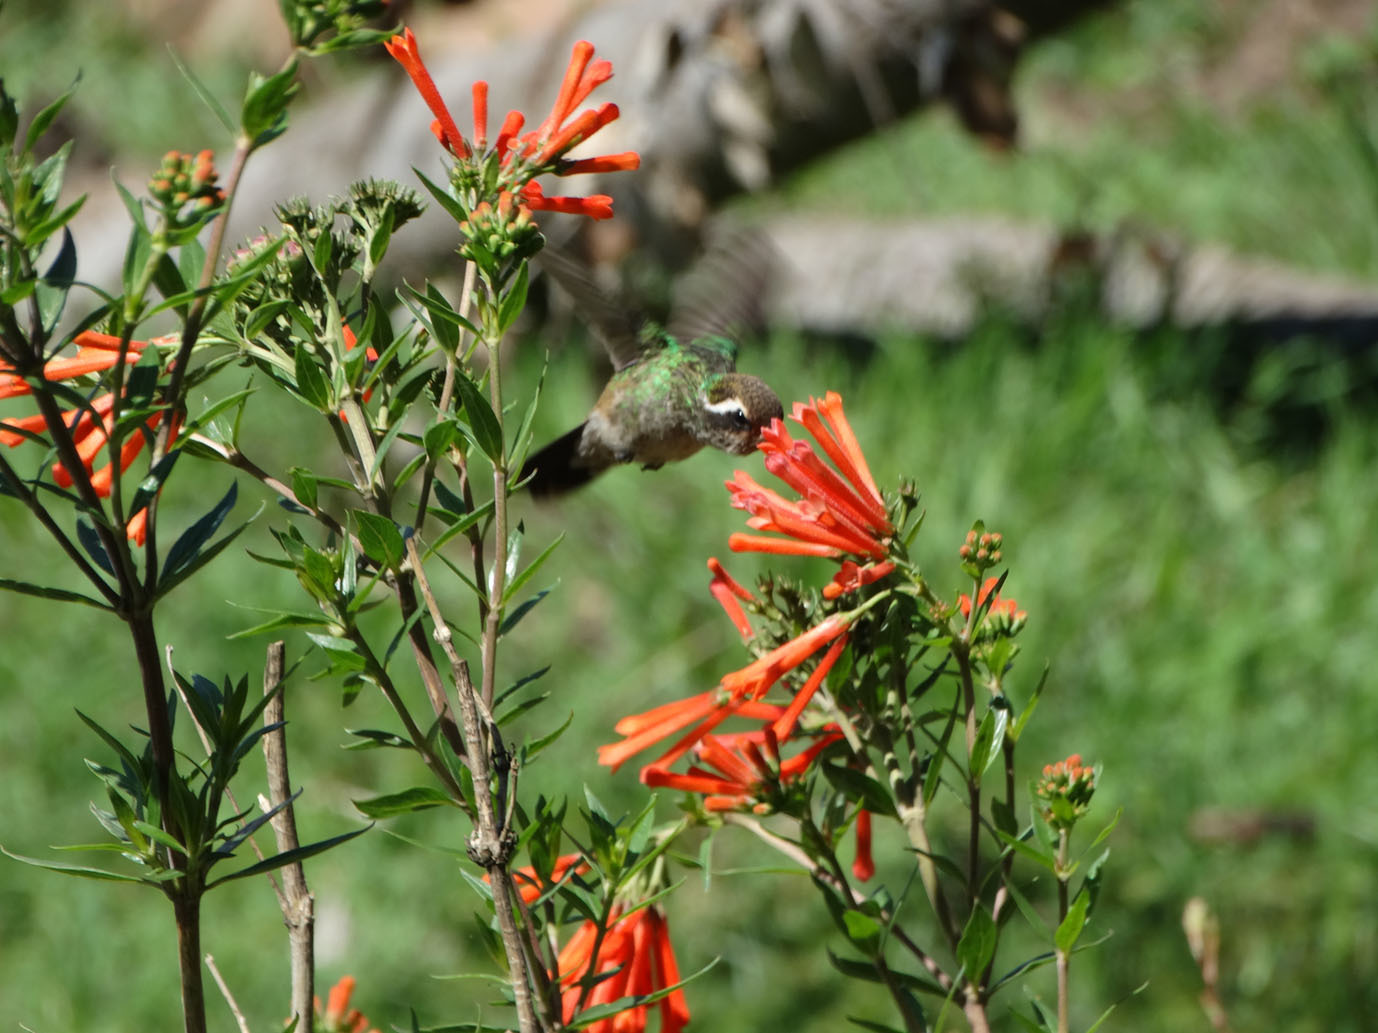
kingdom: Animalia
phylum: Chordata
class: Aves
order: Apodiformes
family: Trochilidae
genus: Basilinna
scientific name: Basilinna leucotis
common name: White-eared hummingbird
